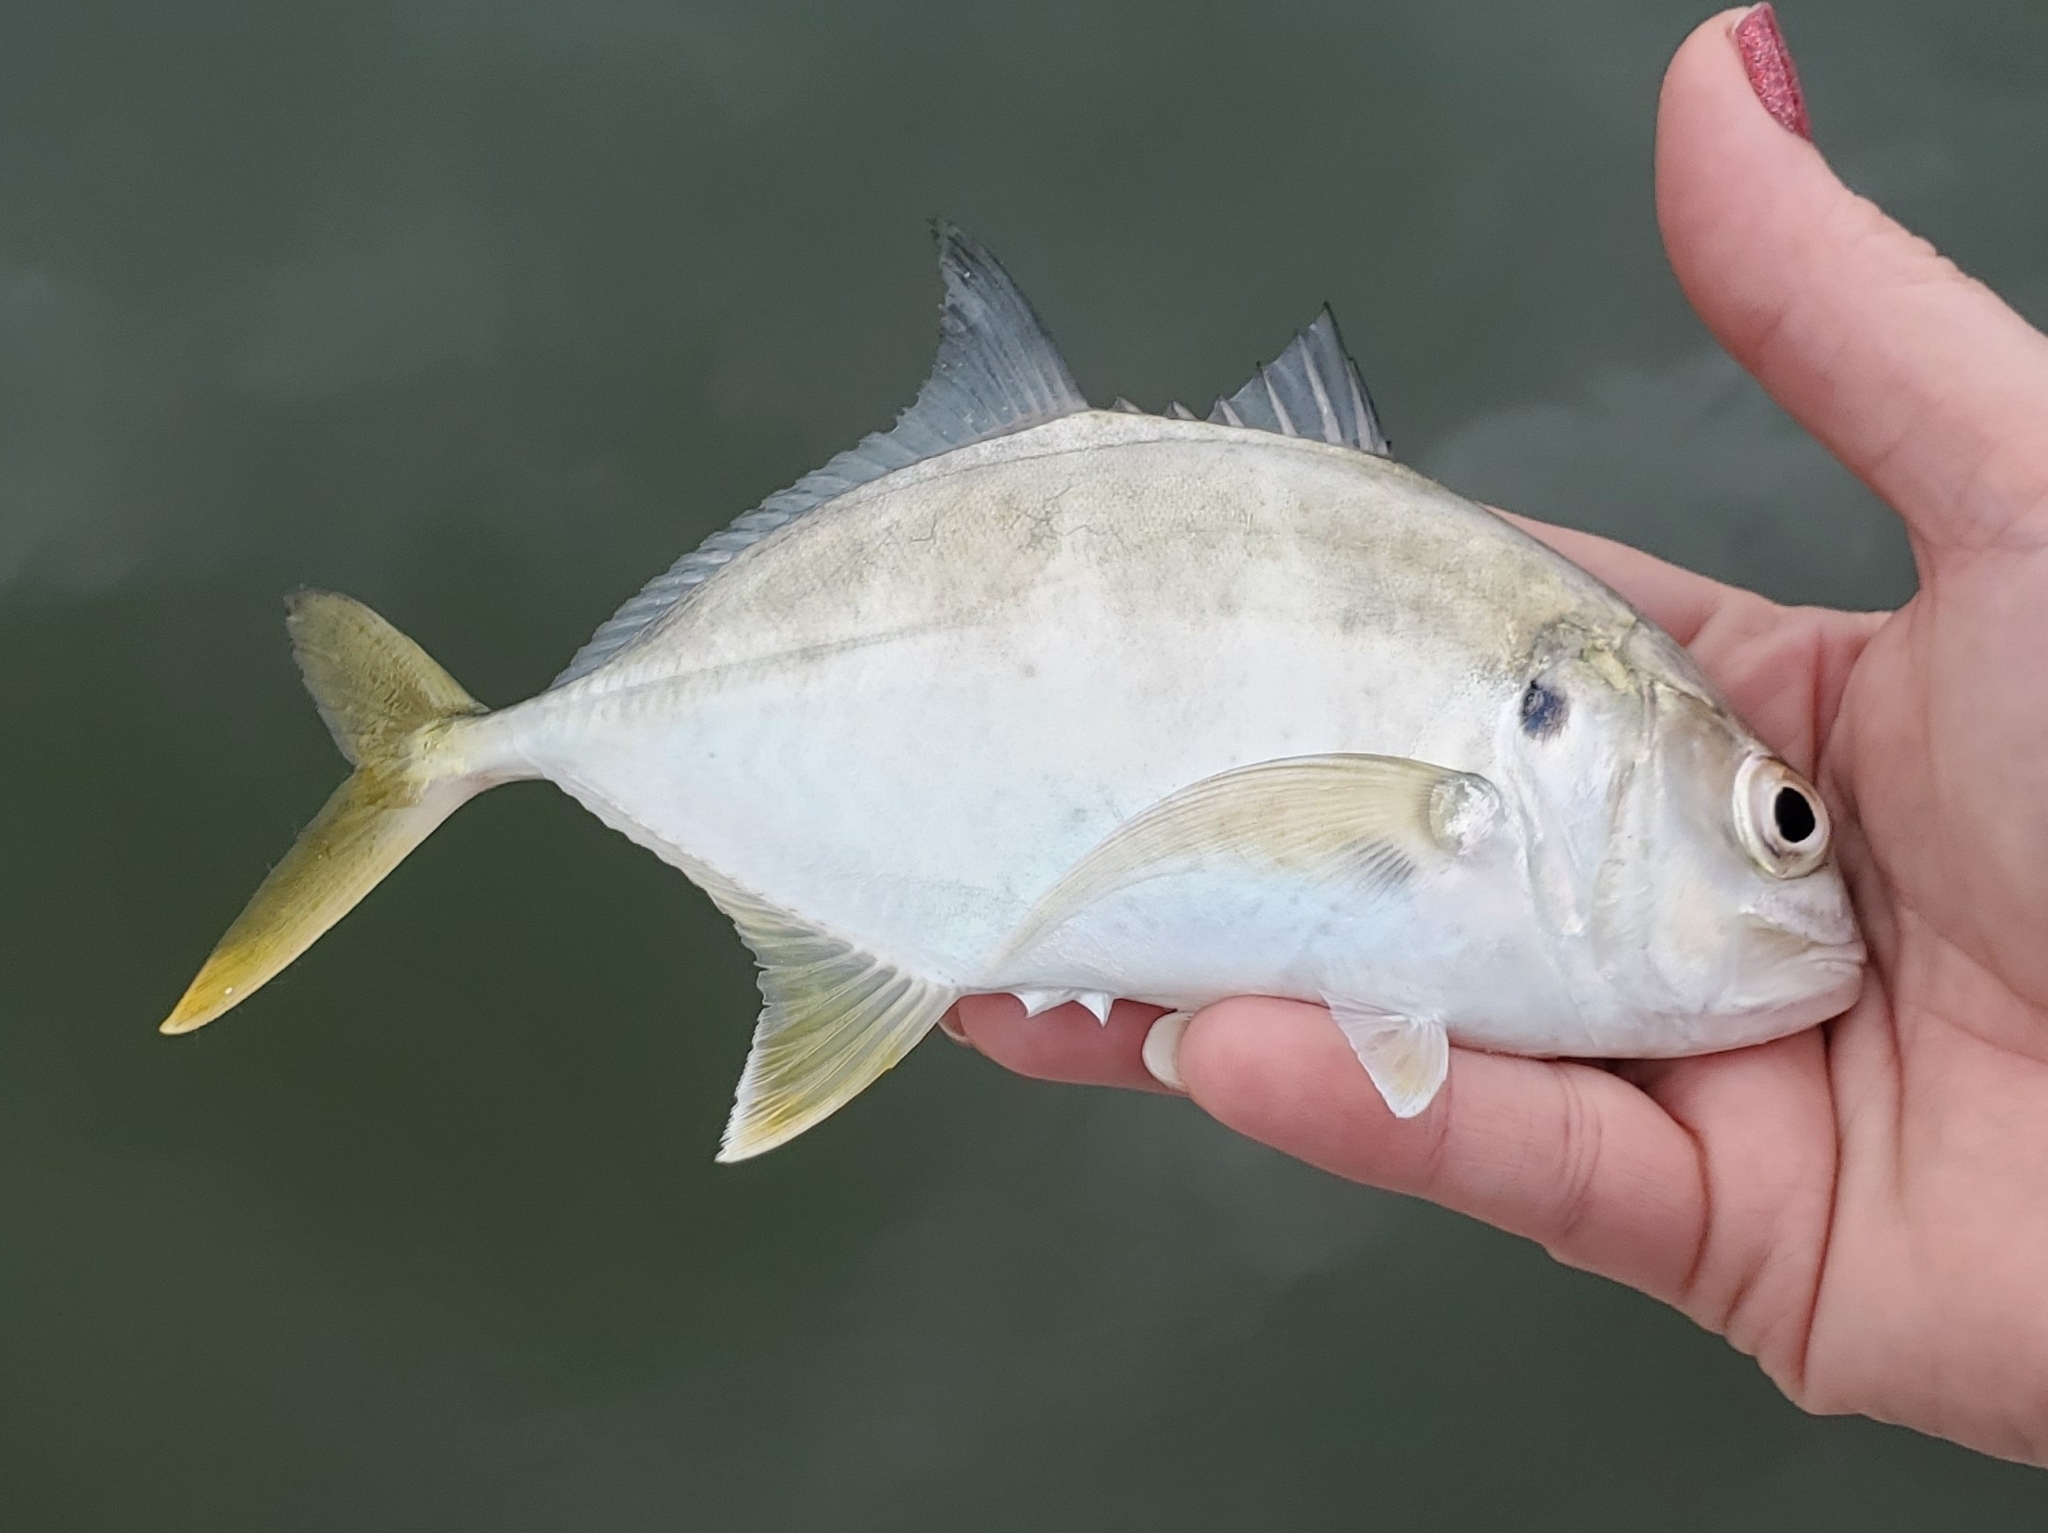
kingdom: Animalia
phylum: Chordata
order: Perciformes
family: Carangidae
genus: Caranx
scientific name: Caranx hippos
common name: Common jack
